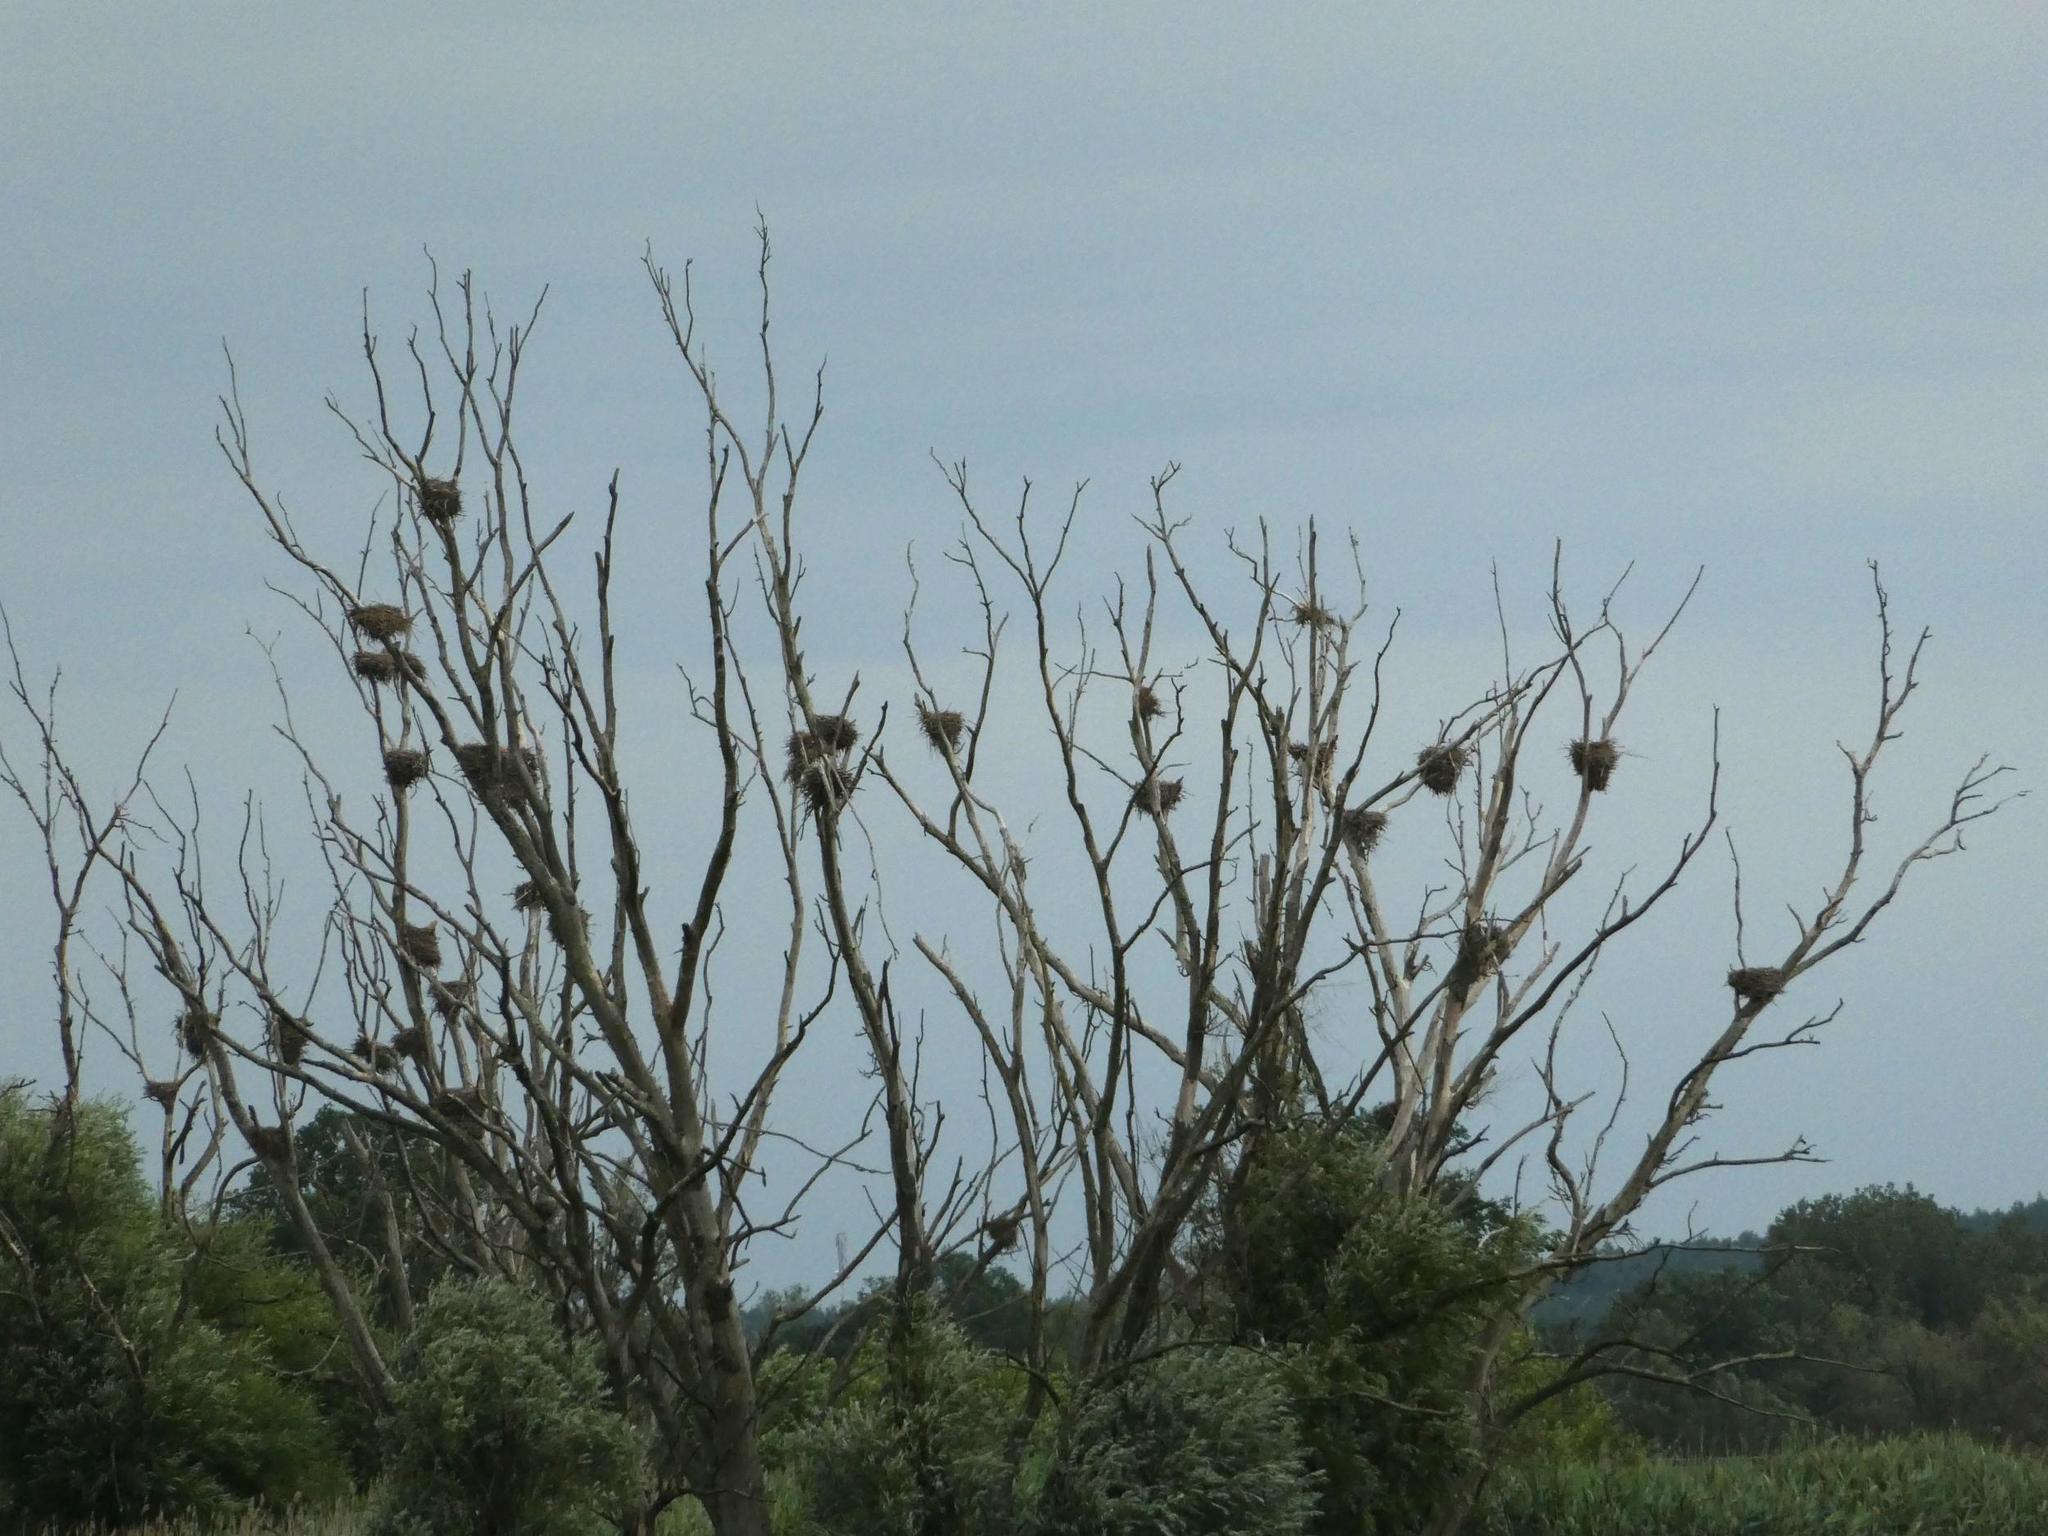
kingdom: Animalia
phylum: Chordata
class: Aves
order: Suliformes
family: Phalacrocoracidae
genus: Phalacrocorax
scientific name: Phalacrocorax carbo
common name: Great cormorant
